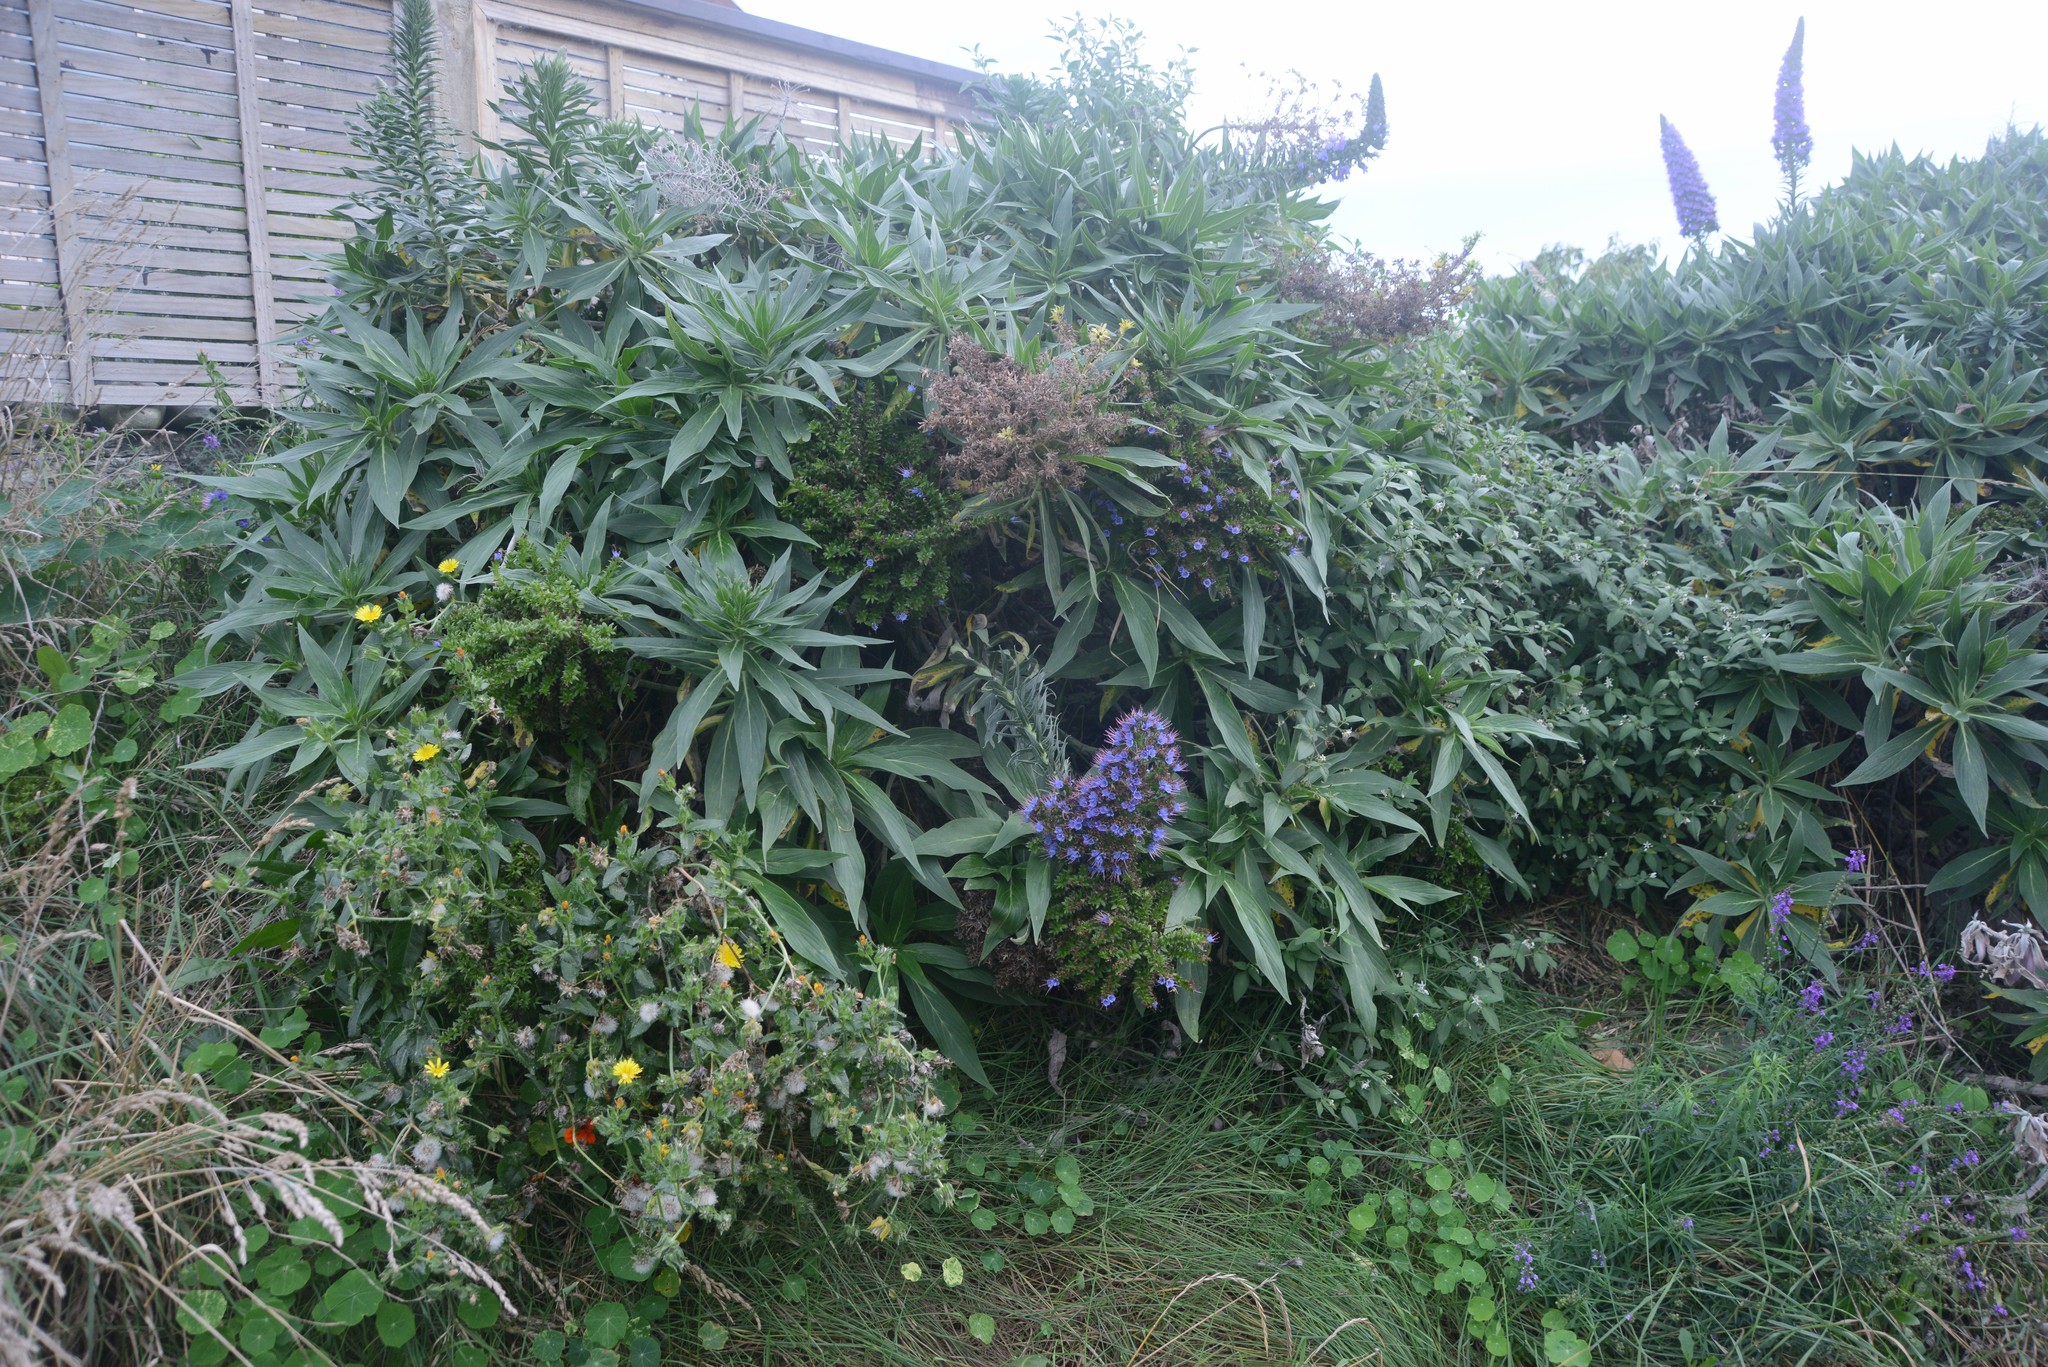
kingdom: Plantae
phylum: Tracheophyta
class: Magnoliopsida
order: Boraginales
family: Boraginaceae
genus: Echium
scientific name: Echium candicans
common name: Pride of madeira
